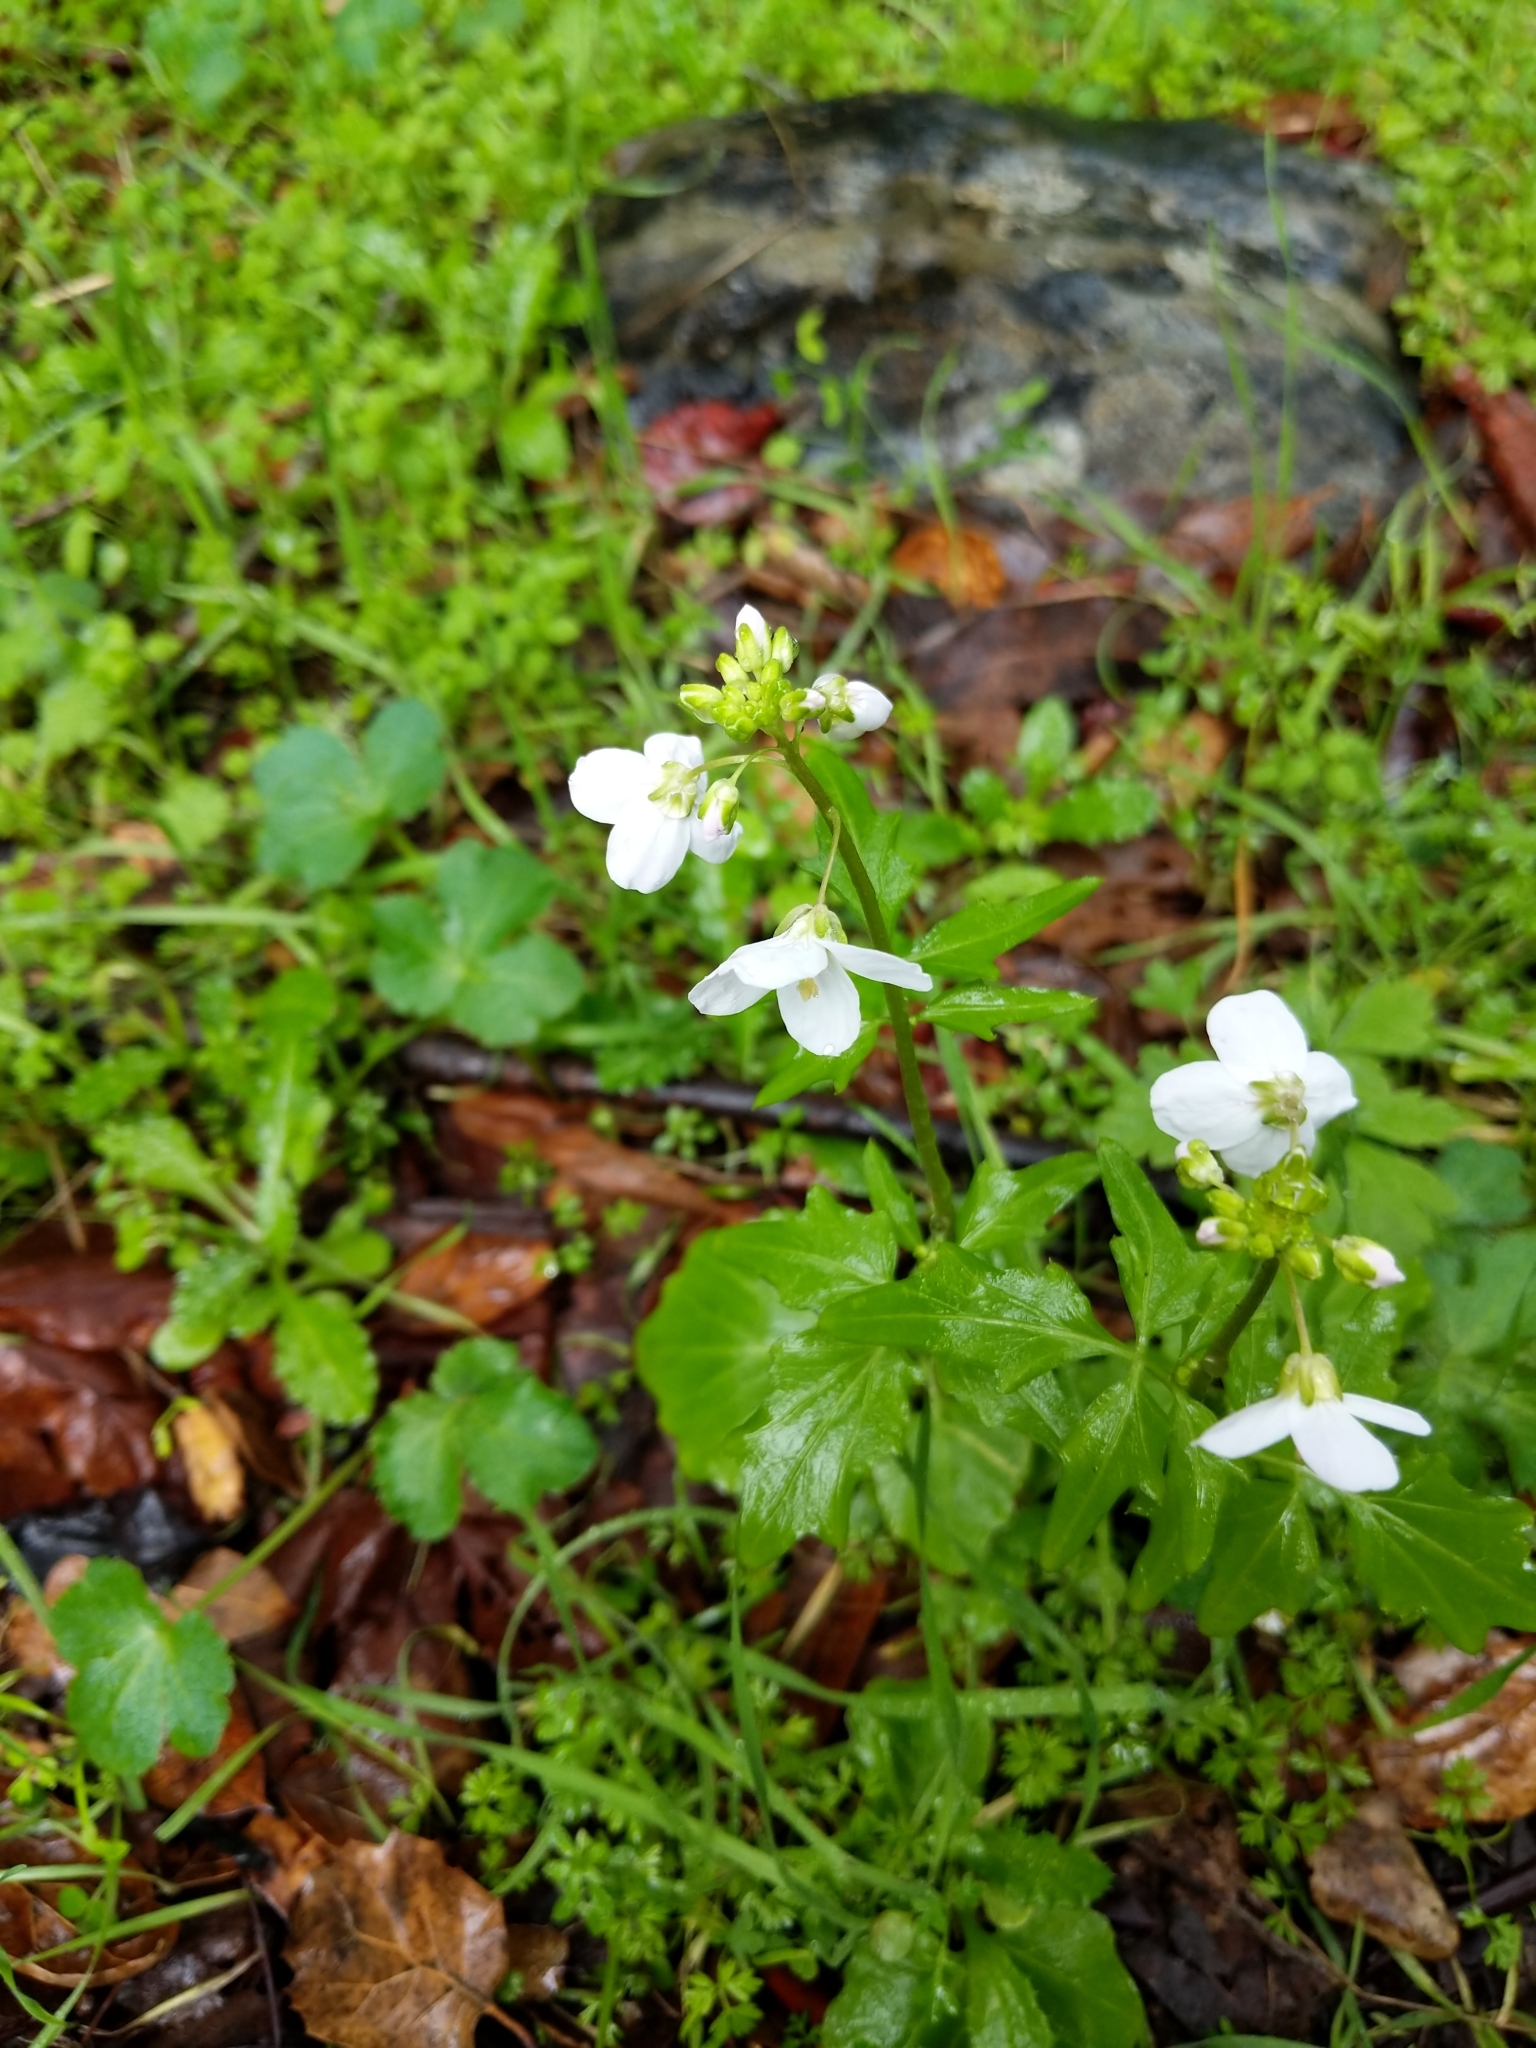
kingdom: Plantae
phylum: Tracheophyta
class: Magnoliopsida
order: Brassicales
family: Brassicaceae
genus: Cardamine
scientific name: Cardamine californica
